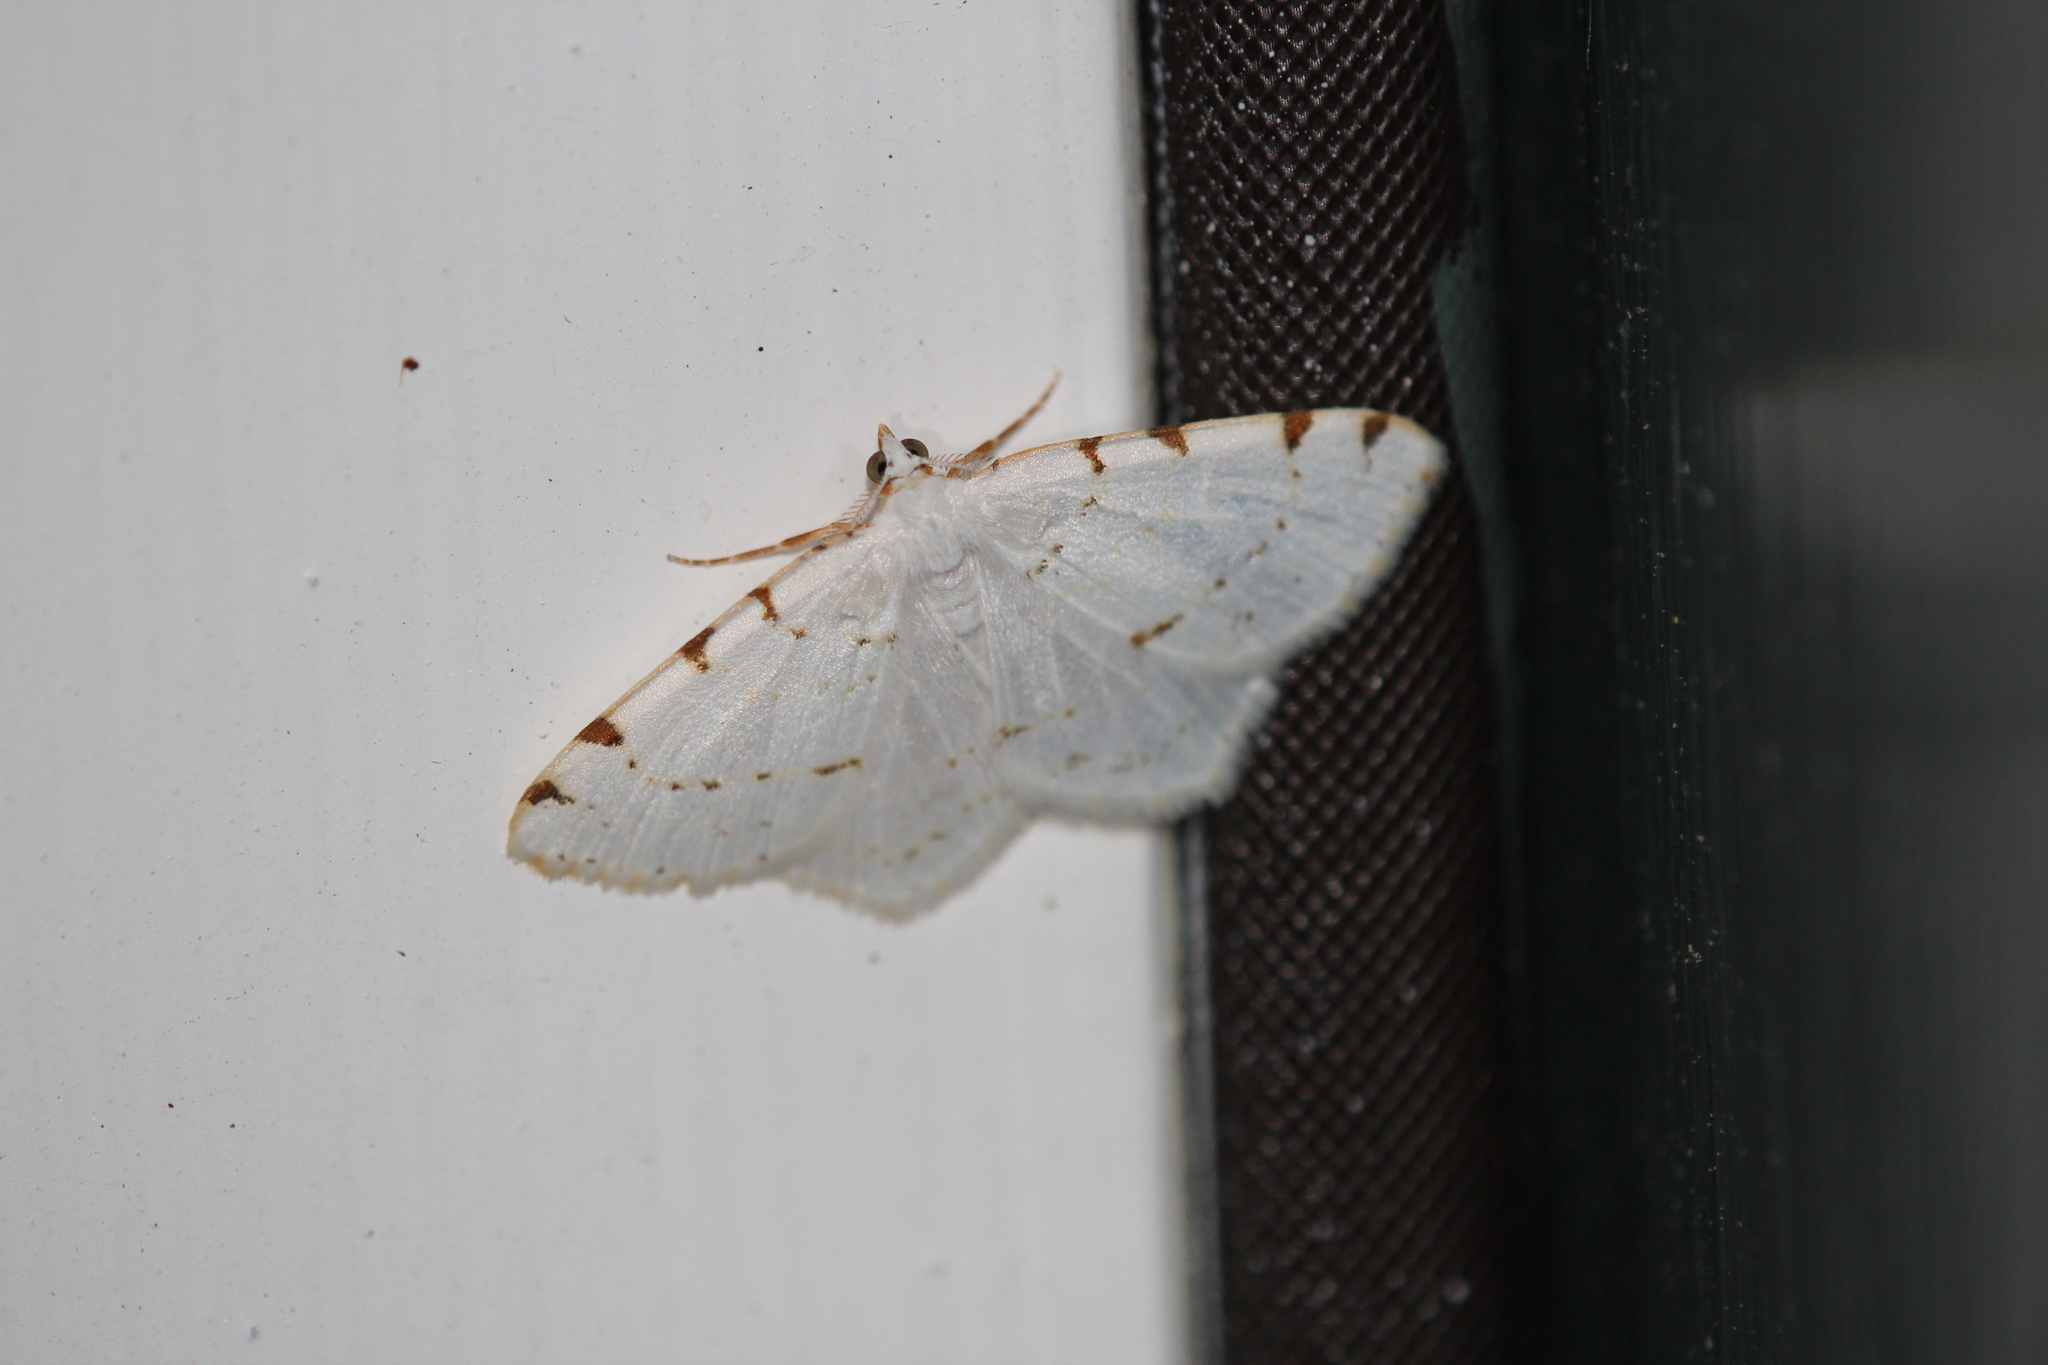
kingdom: Animalia
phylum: Arthropoda
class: Insecta
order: Lepidoptera
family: Geometridae
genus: Macaria
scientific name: Macaria pustularia
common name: Lesser maple spanworm moth
